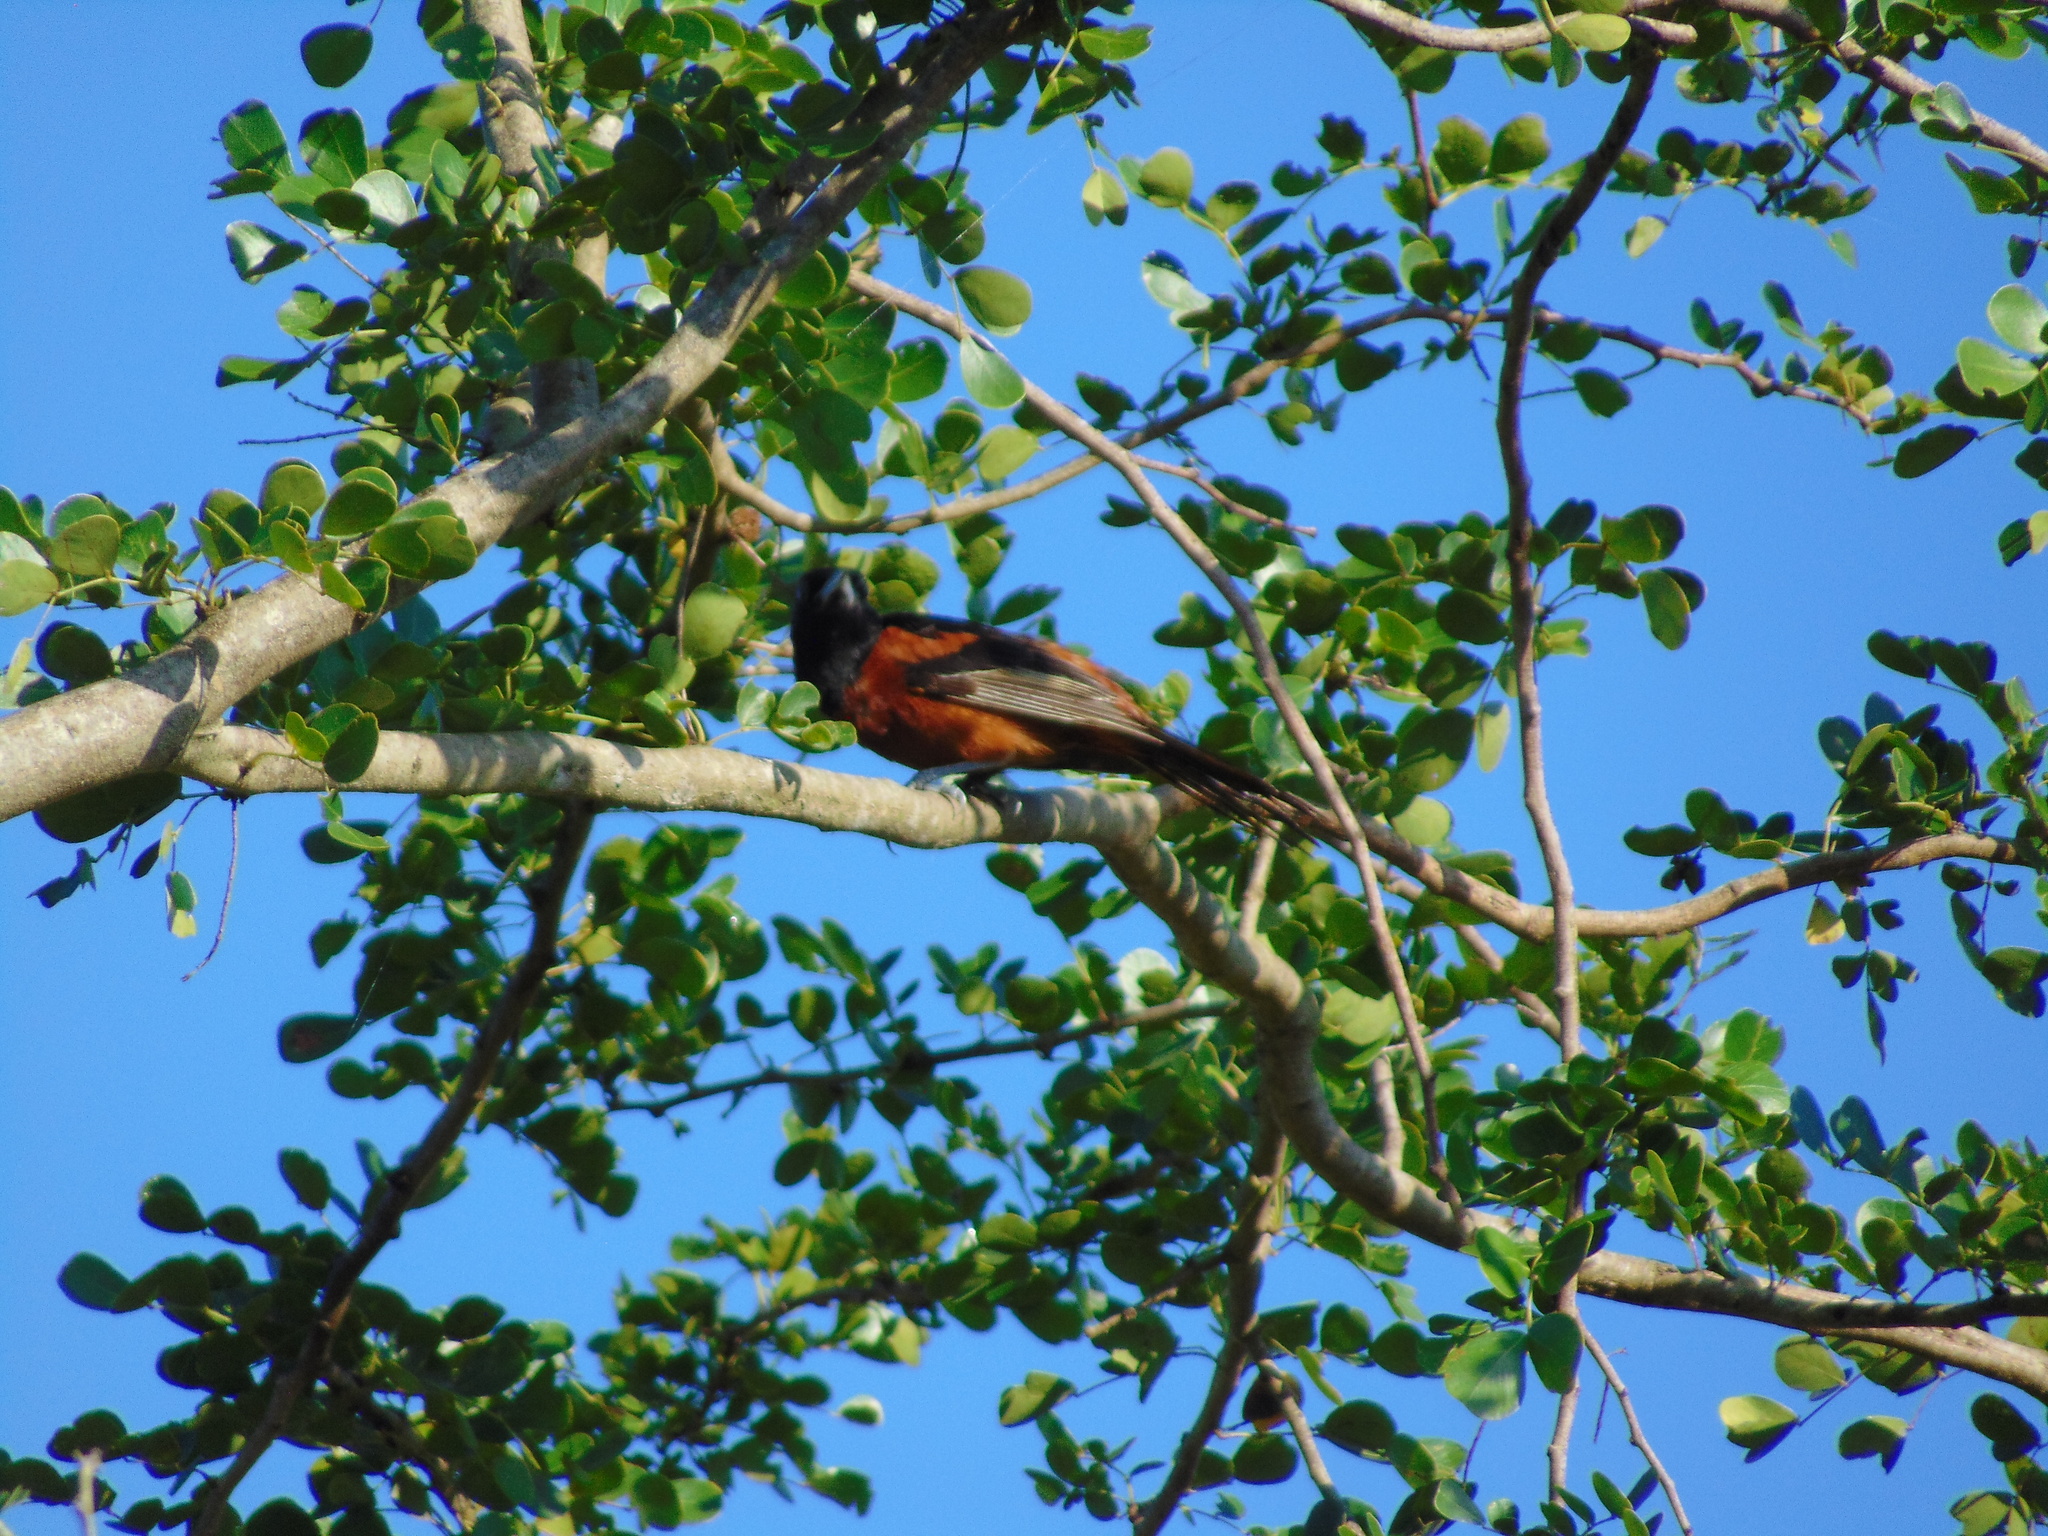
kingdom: Animalia
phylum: Chordata
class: Aves
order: Passeriformes
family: Icteridae
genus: Icterus
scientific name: Icterus spurius
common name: Orchard oriole
